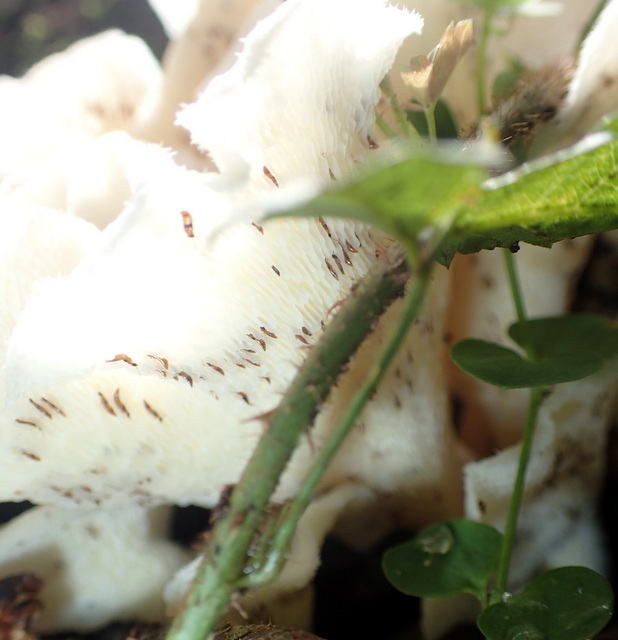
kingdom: Fungi
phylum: Basidiomycota
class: Agaricomycetes
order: Polyporales
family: Polyporaceae
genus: Favolus
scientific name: Favolus tenuiculus
